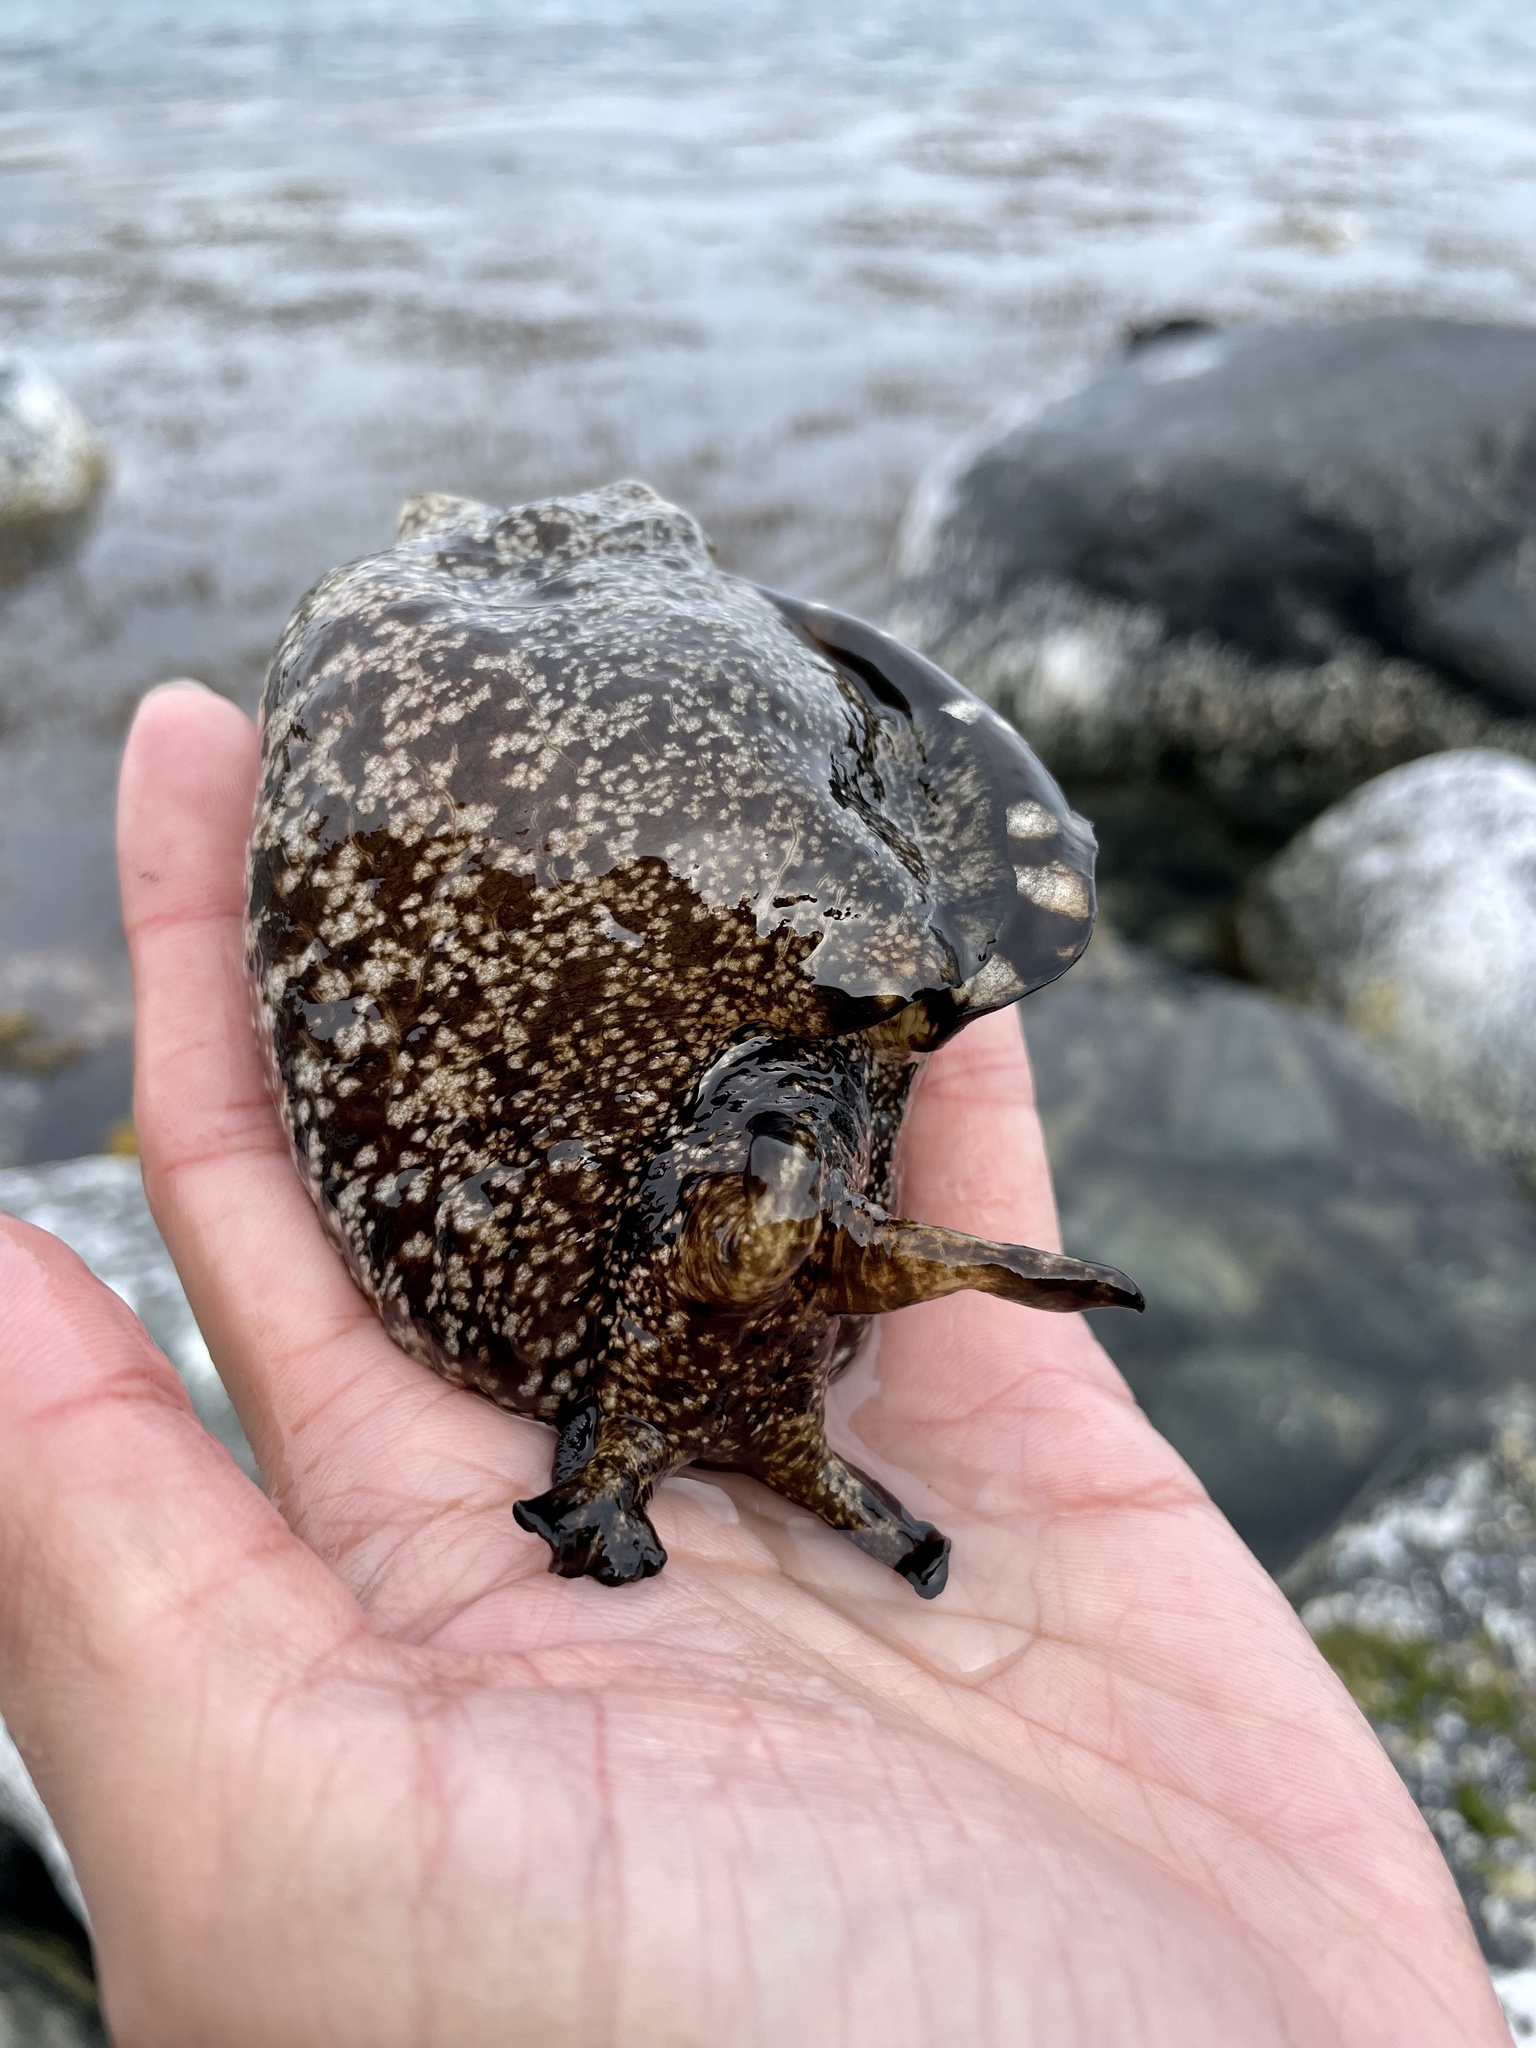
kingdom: Animalia
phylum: Mollusca
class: Gastropoda
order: Aplysiida
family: Aplysiidae
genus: Aplysia
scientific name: Aplysia kurodai
